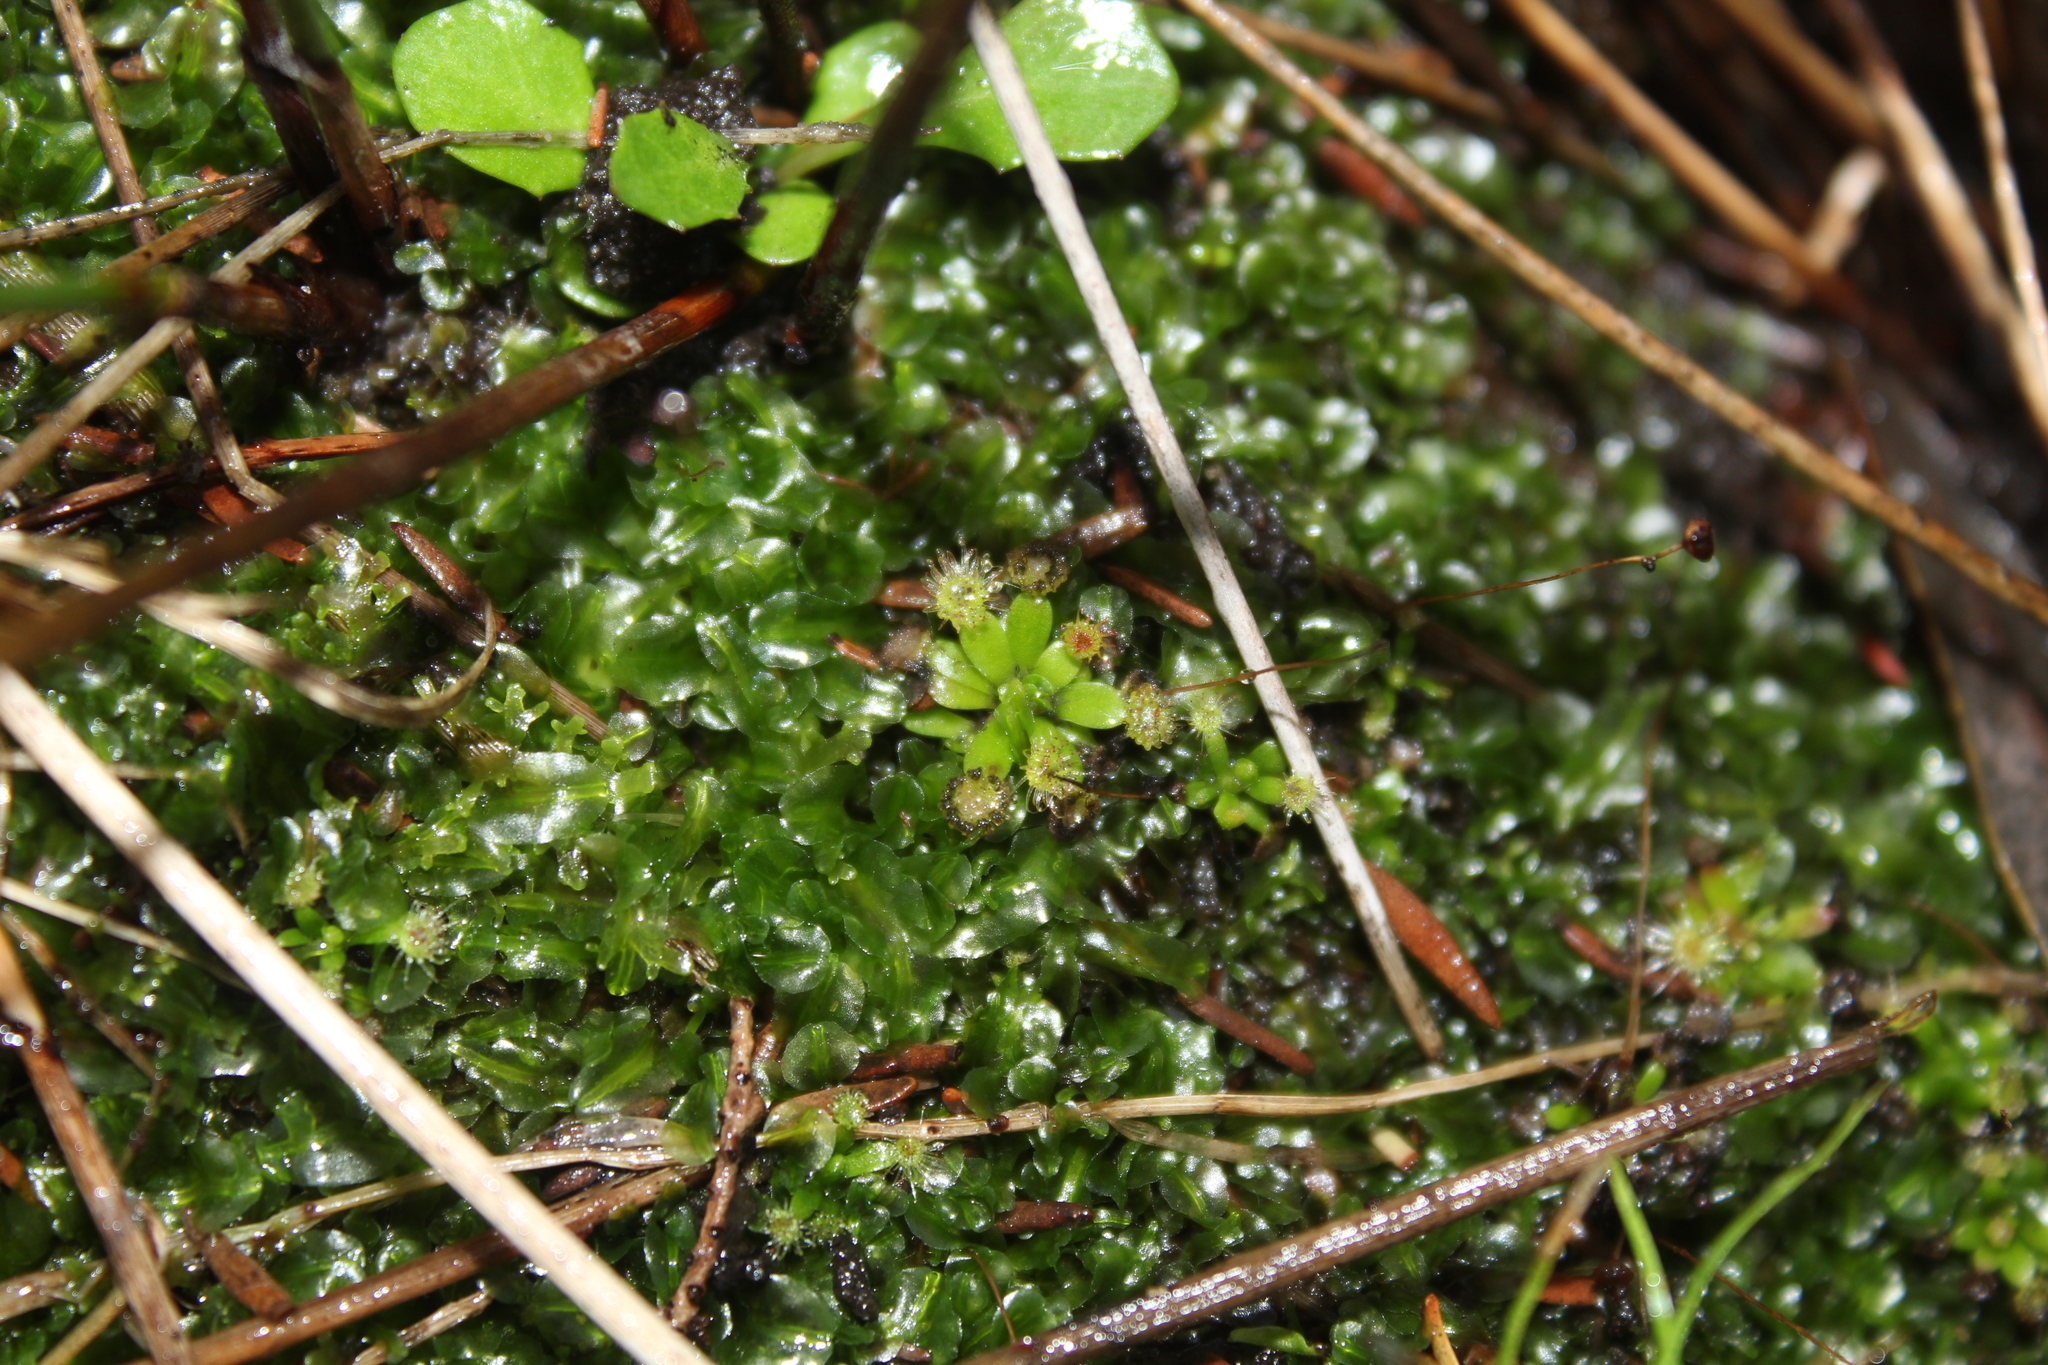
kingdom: Plantae
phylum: Tracheophyta
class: Magnoliopsida
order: Caryophyllales
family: Droseraceae
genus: Drosera
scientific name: Drosera pulchella
